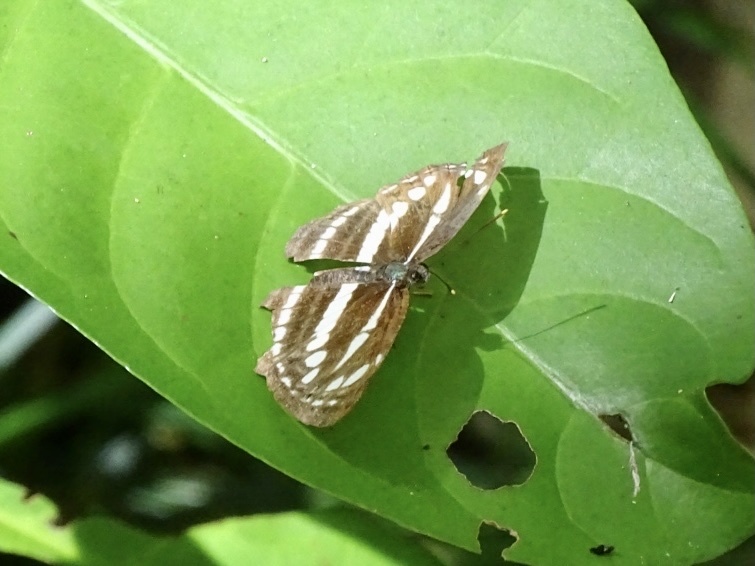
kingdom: Animalia
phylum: Arthropoda
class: Insecta
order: Lepidoptera
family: Nymphalidae
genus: Neptis
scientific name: Neptis clinia
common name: Southern sullied sailer
